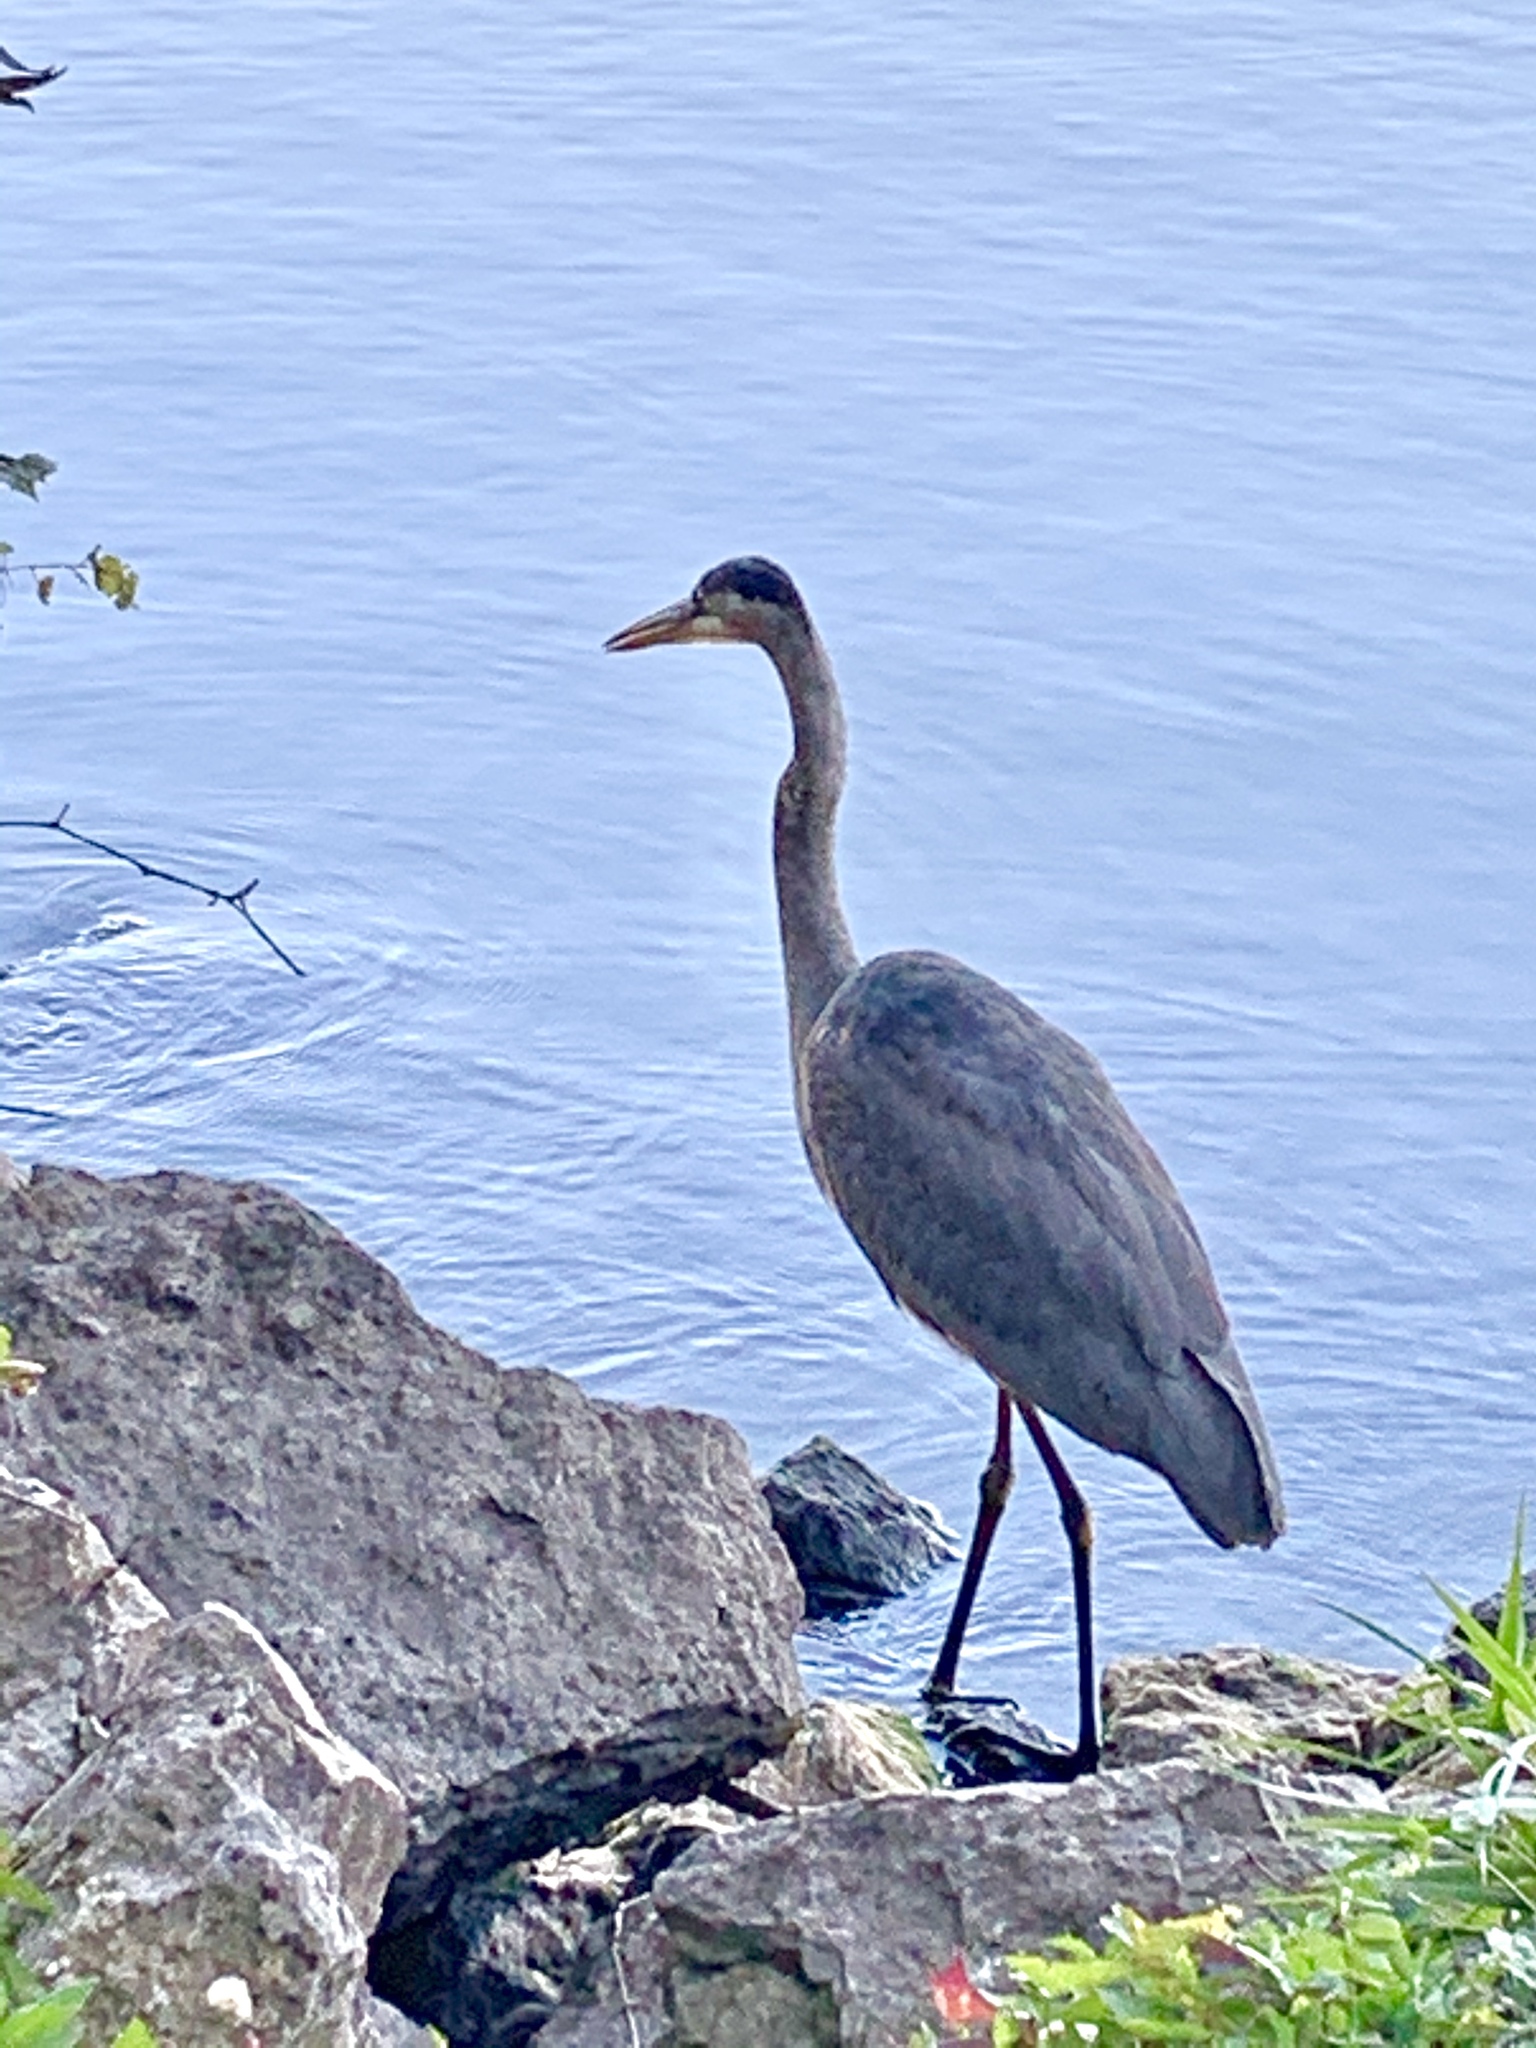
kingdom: Animalia
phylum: Chordata
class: Aves
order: Pelecaniformes
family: Ardeidae
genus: Ardea
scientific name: Ardea herodias
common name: Great blue heron
